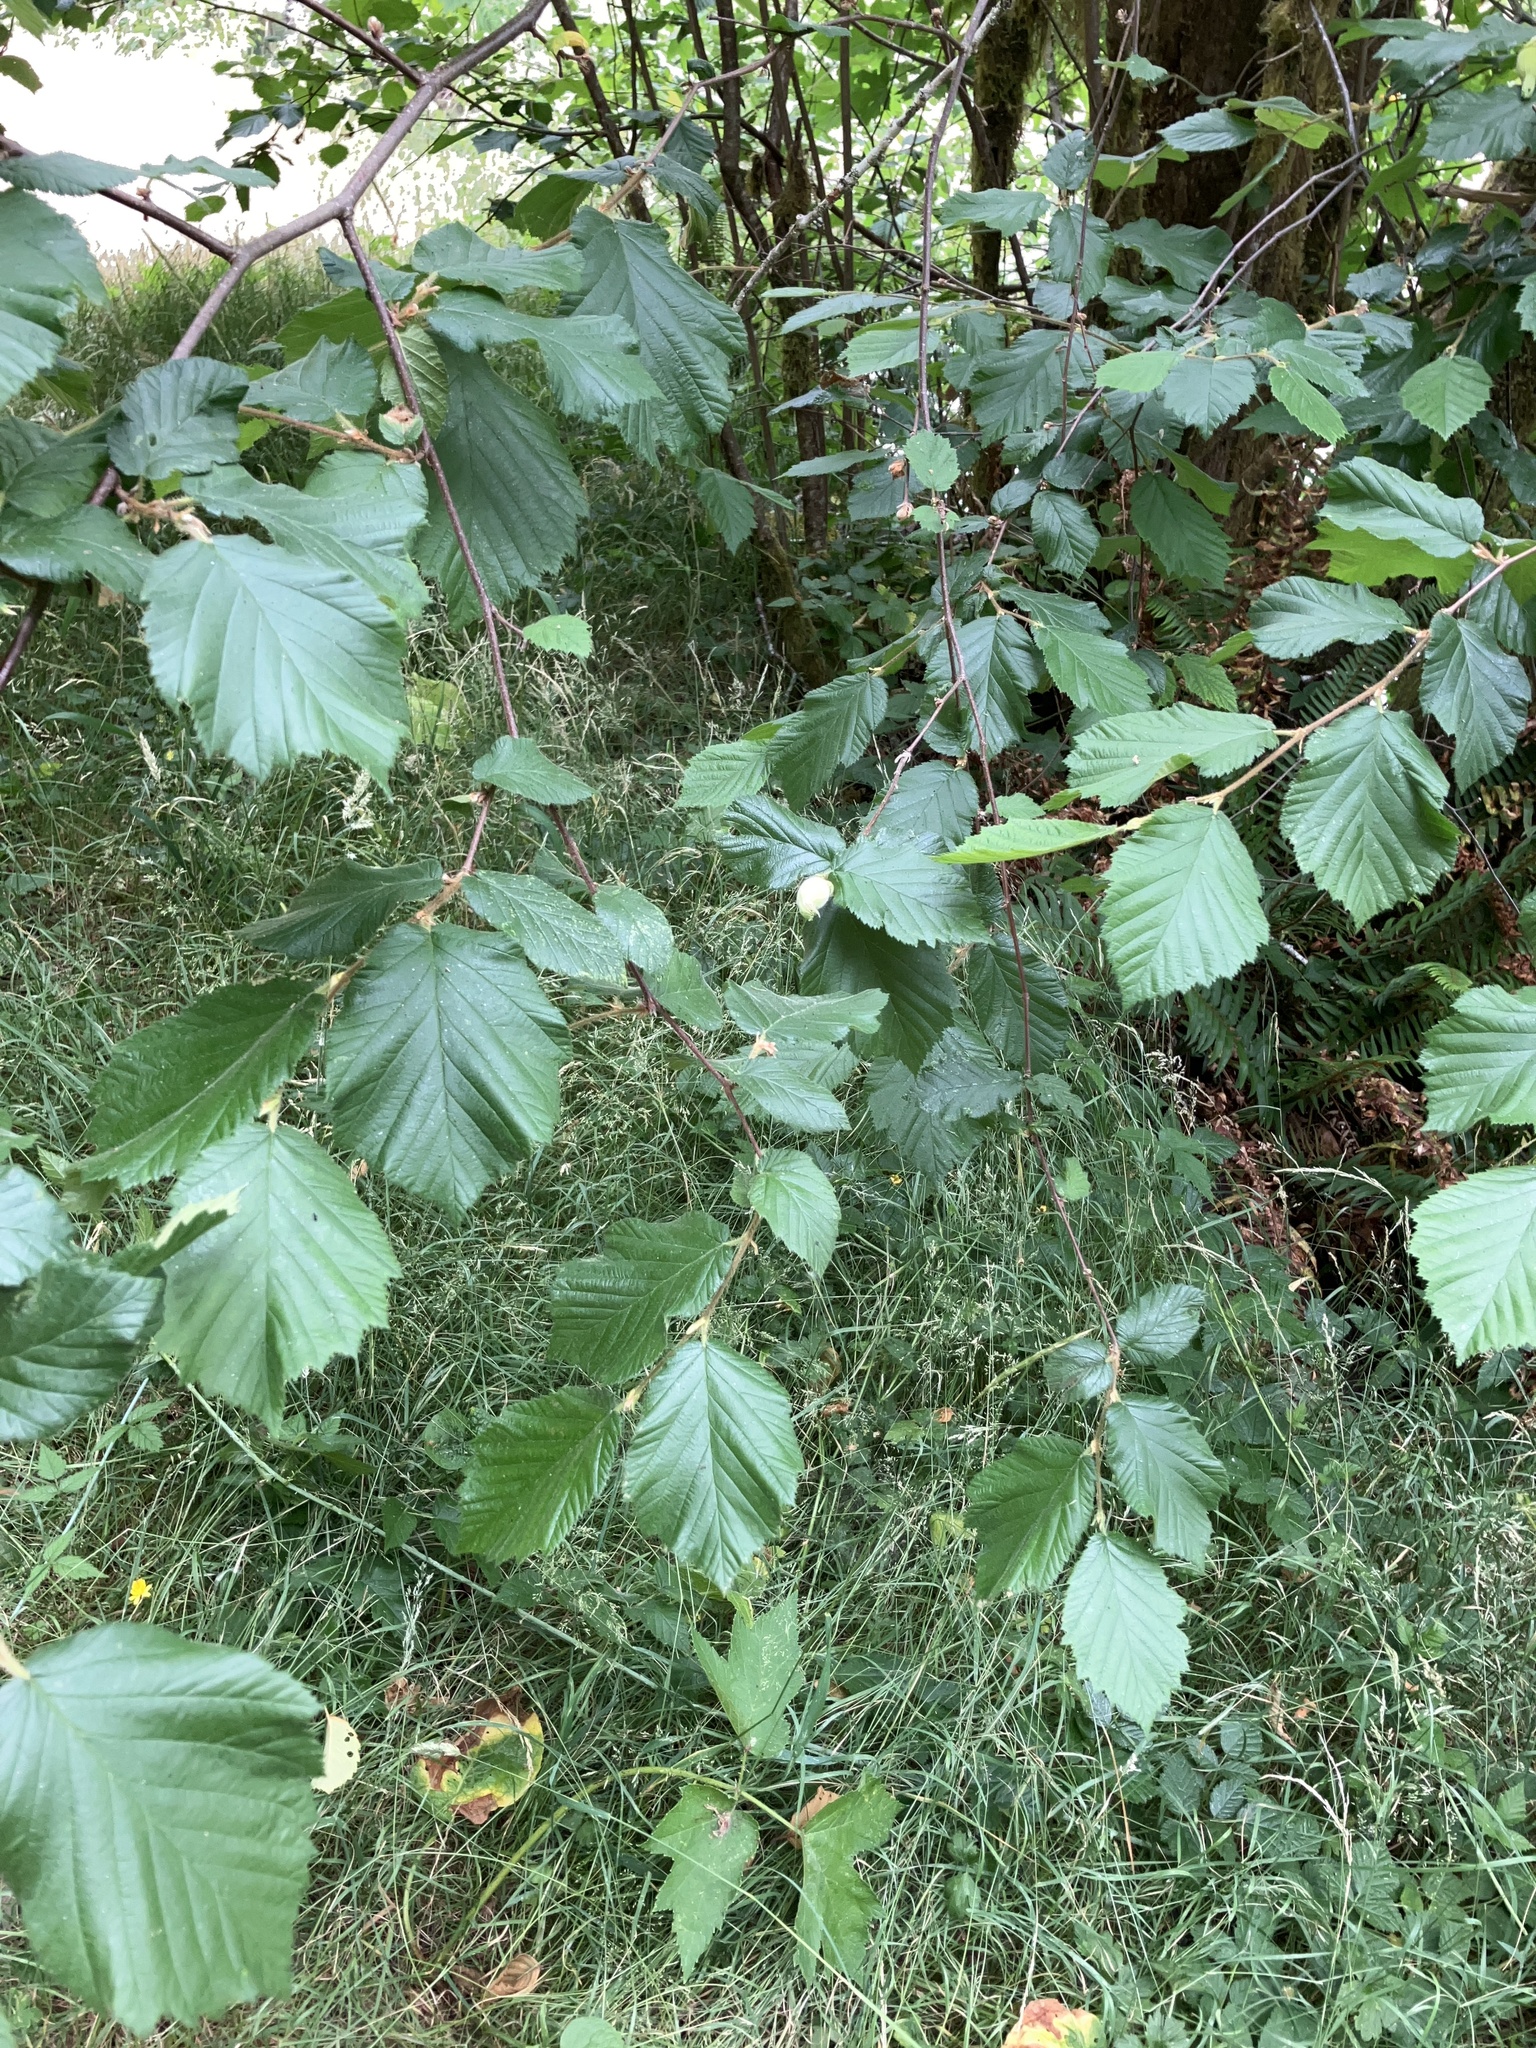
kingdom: Plantae
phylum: Tracheophyta
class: Magnoliopsida
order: Fagales
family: Betulaceae
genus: Corylus
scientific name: Corylus cornuta
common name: Beaked hazel
